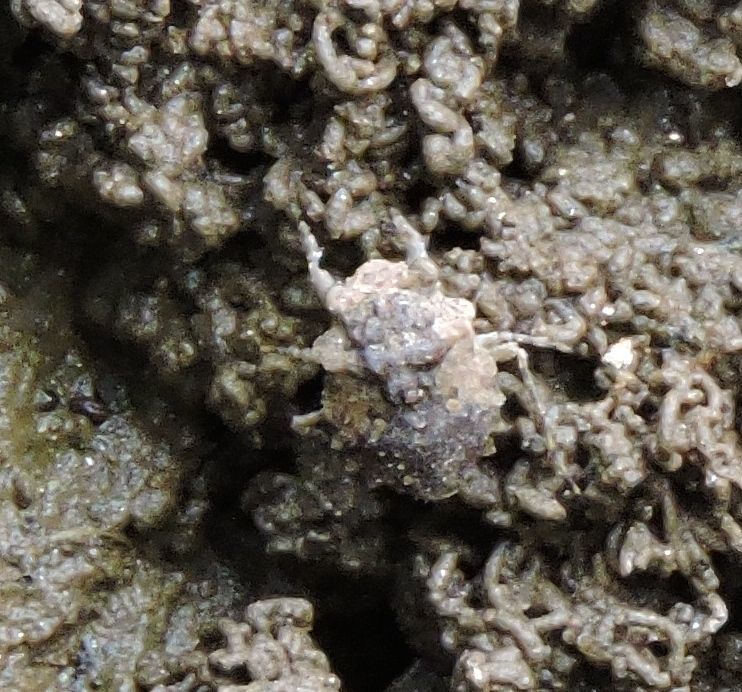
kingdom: Animalia
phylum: Arthropoda
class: Insecta
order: Hemiptera
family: Gelastocoridae
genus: Gelastocoris
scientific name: Gelastocoris oculatus
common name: Toad bug
